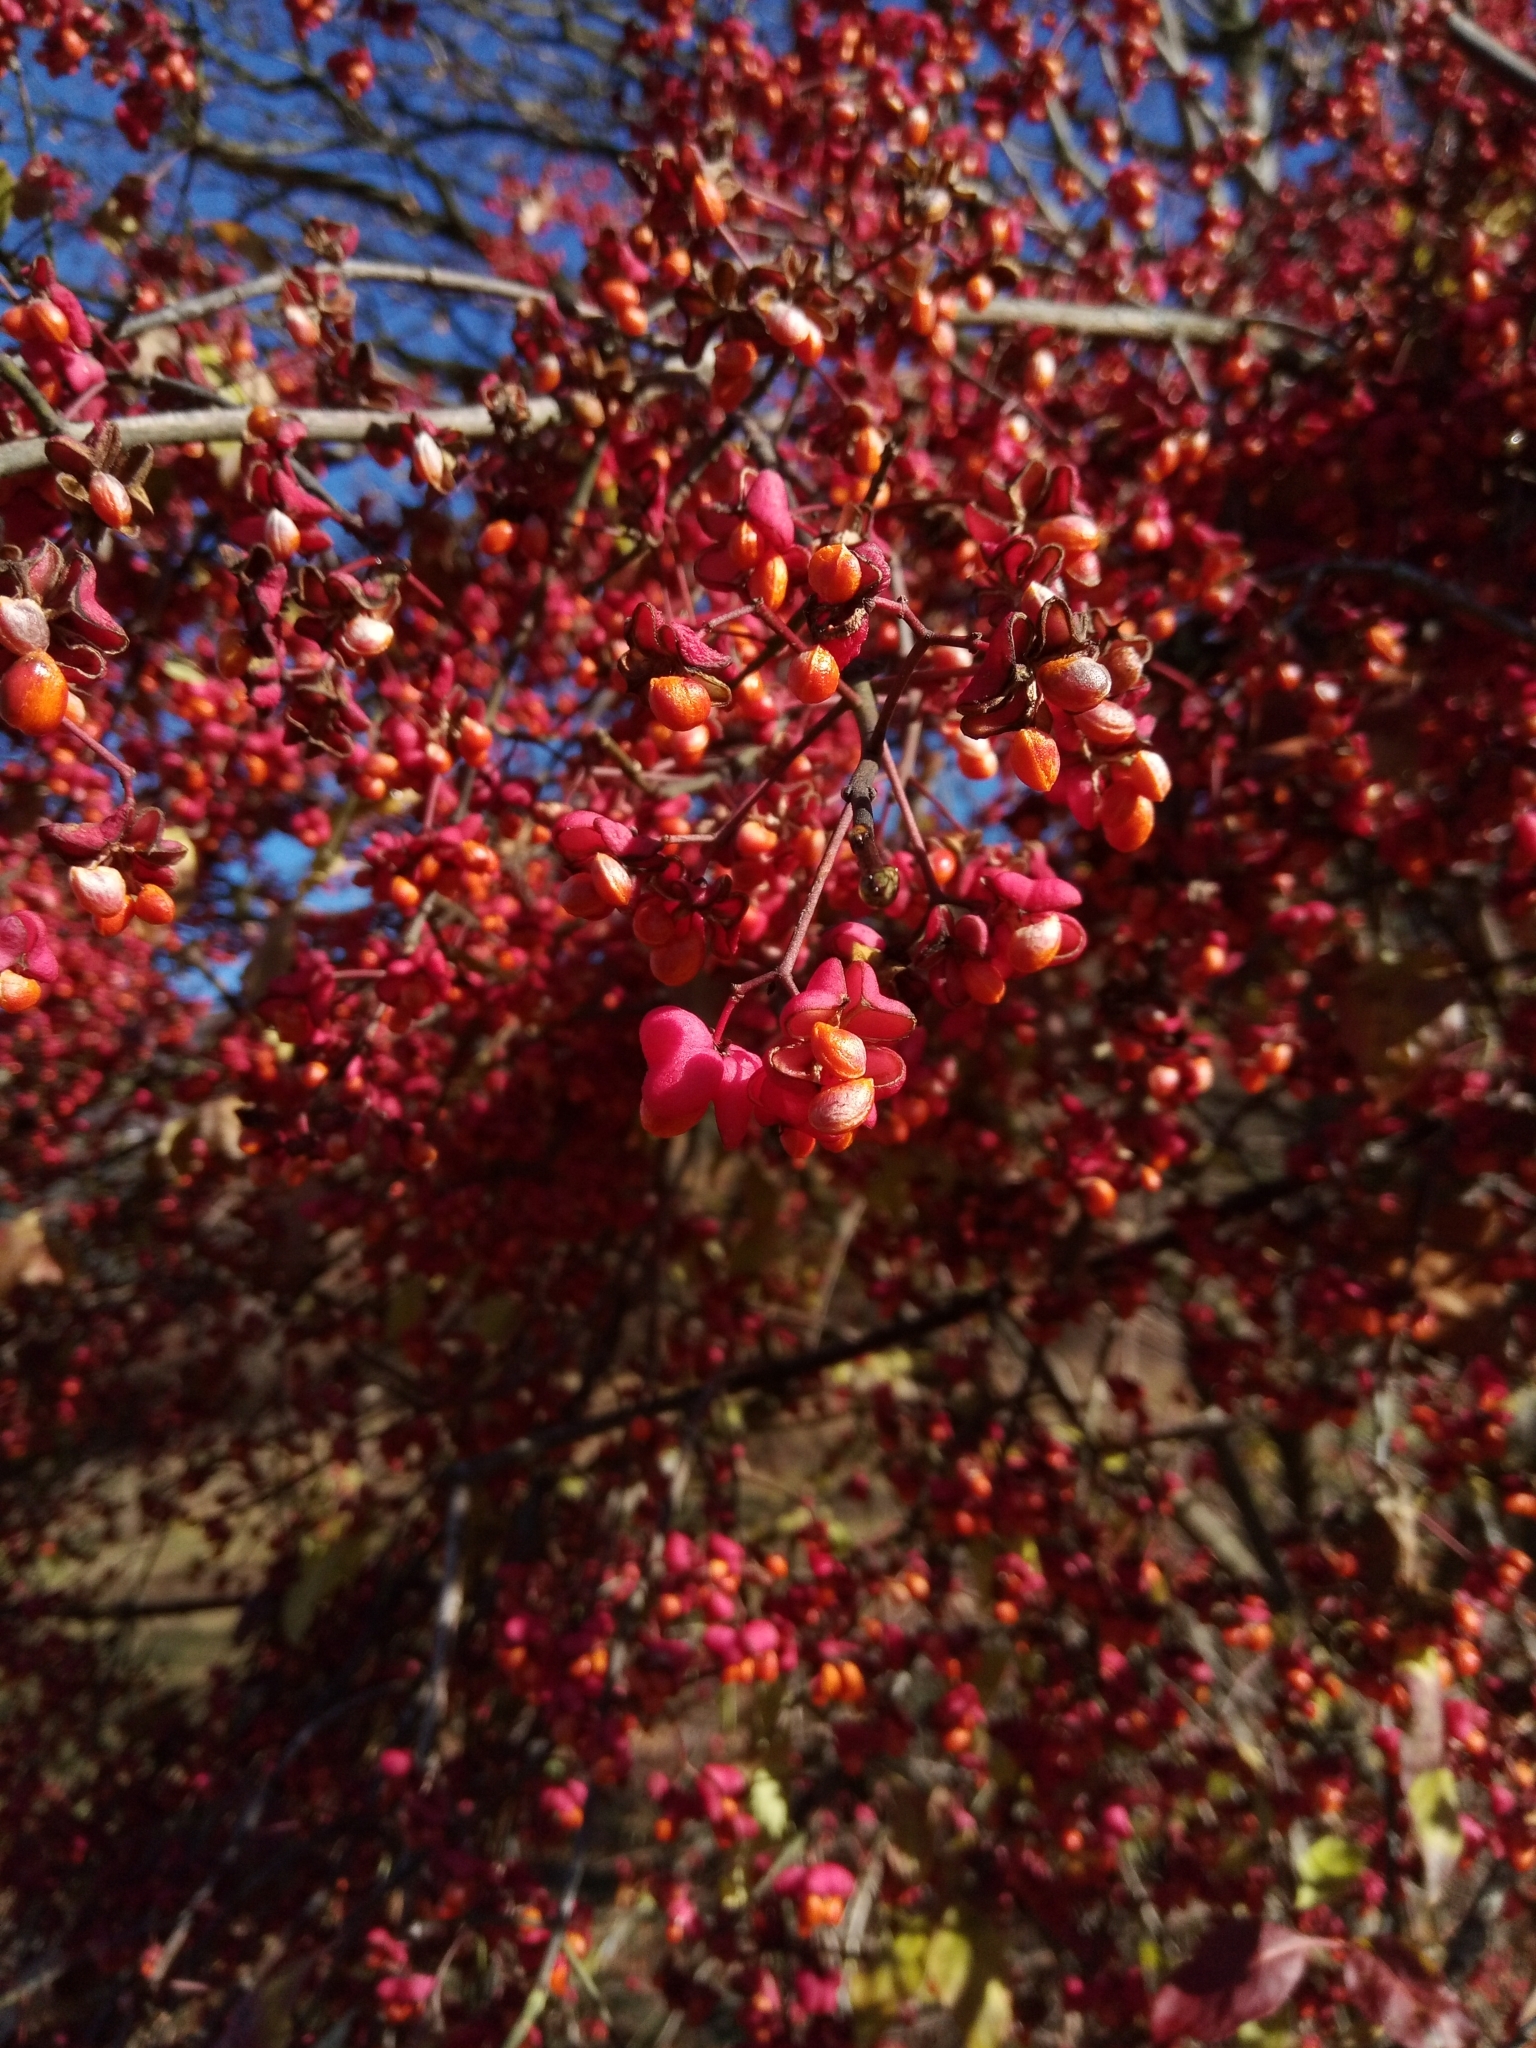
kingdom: Plantae
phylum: Tracheophyta
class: Magnoliopsida
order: Celastrales
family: Celastraceae
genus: Euonymus
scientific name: Euonymus europaeus
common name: Spindle
